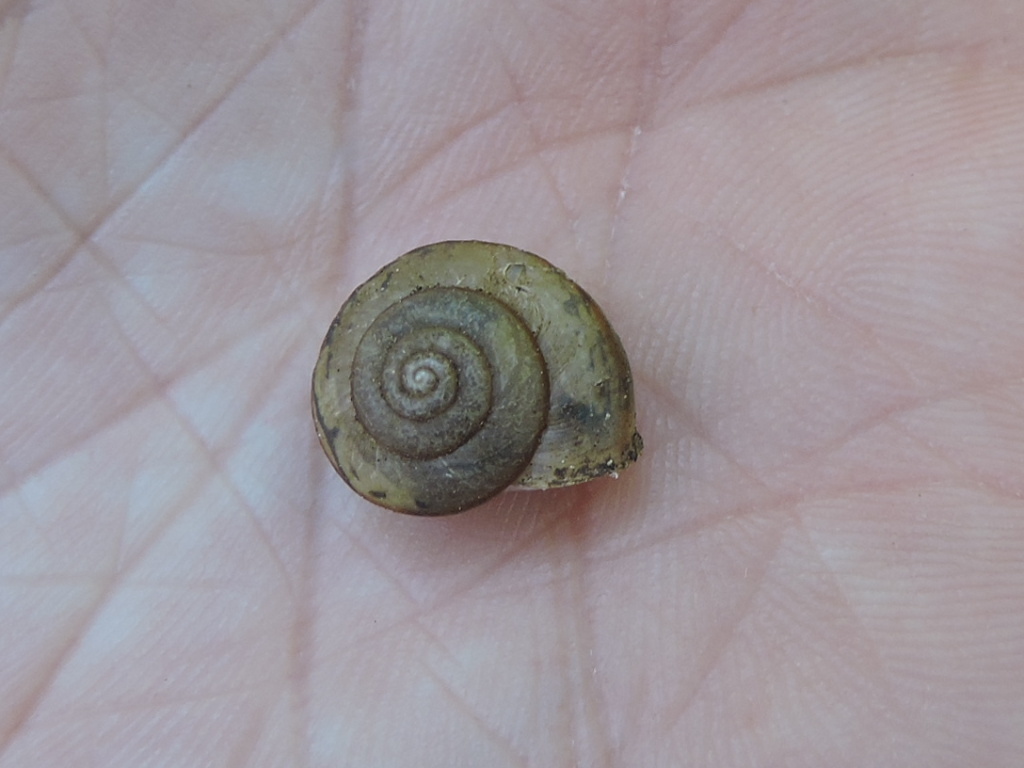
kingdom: Animalia
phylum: Mollusca
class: Gastropoda
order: Stylommatophora
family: Camaenidae
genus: Bradybaena
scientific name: Bradybaena similaris
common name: Asian trampsnail
